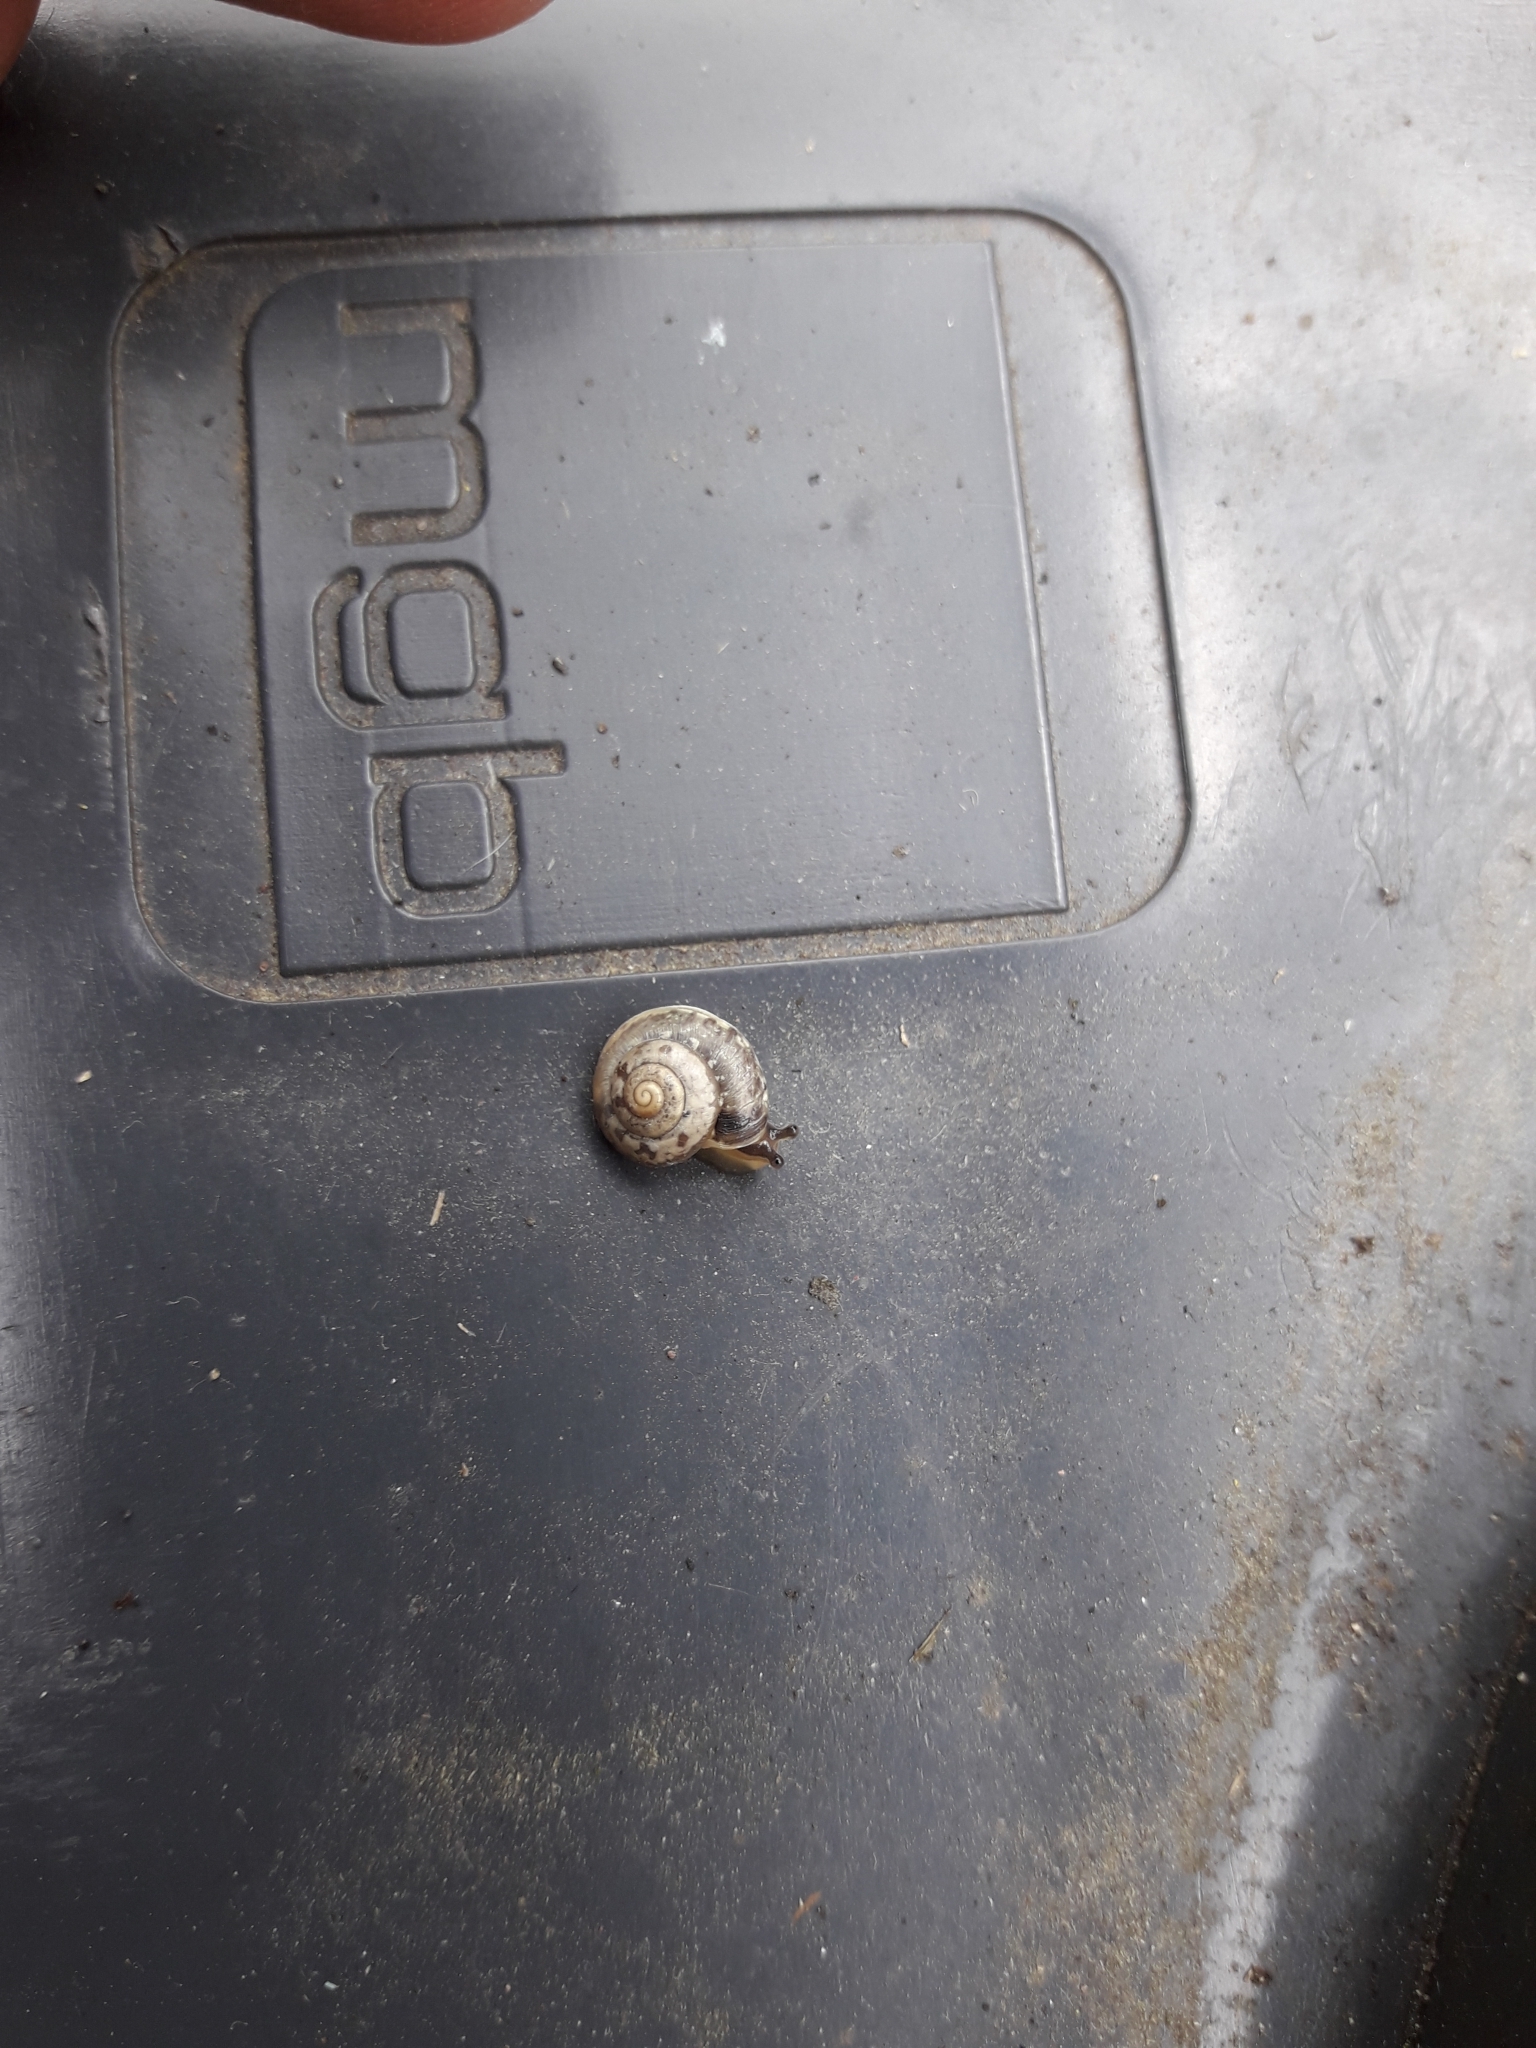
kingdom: Animalia
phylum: Mollusca
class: Gastropoda
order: Stylommatophora
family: Hygromiidae
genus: Hygromia
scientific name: Hygromia cinctella
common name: Girdled snail
